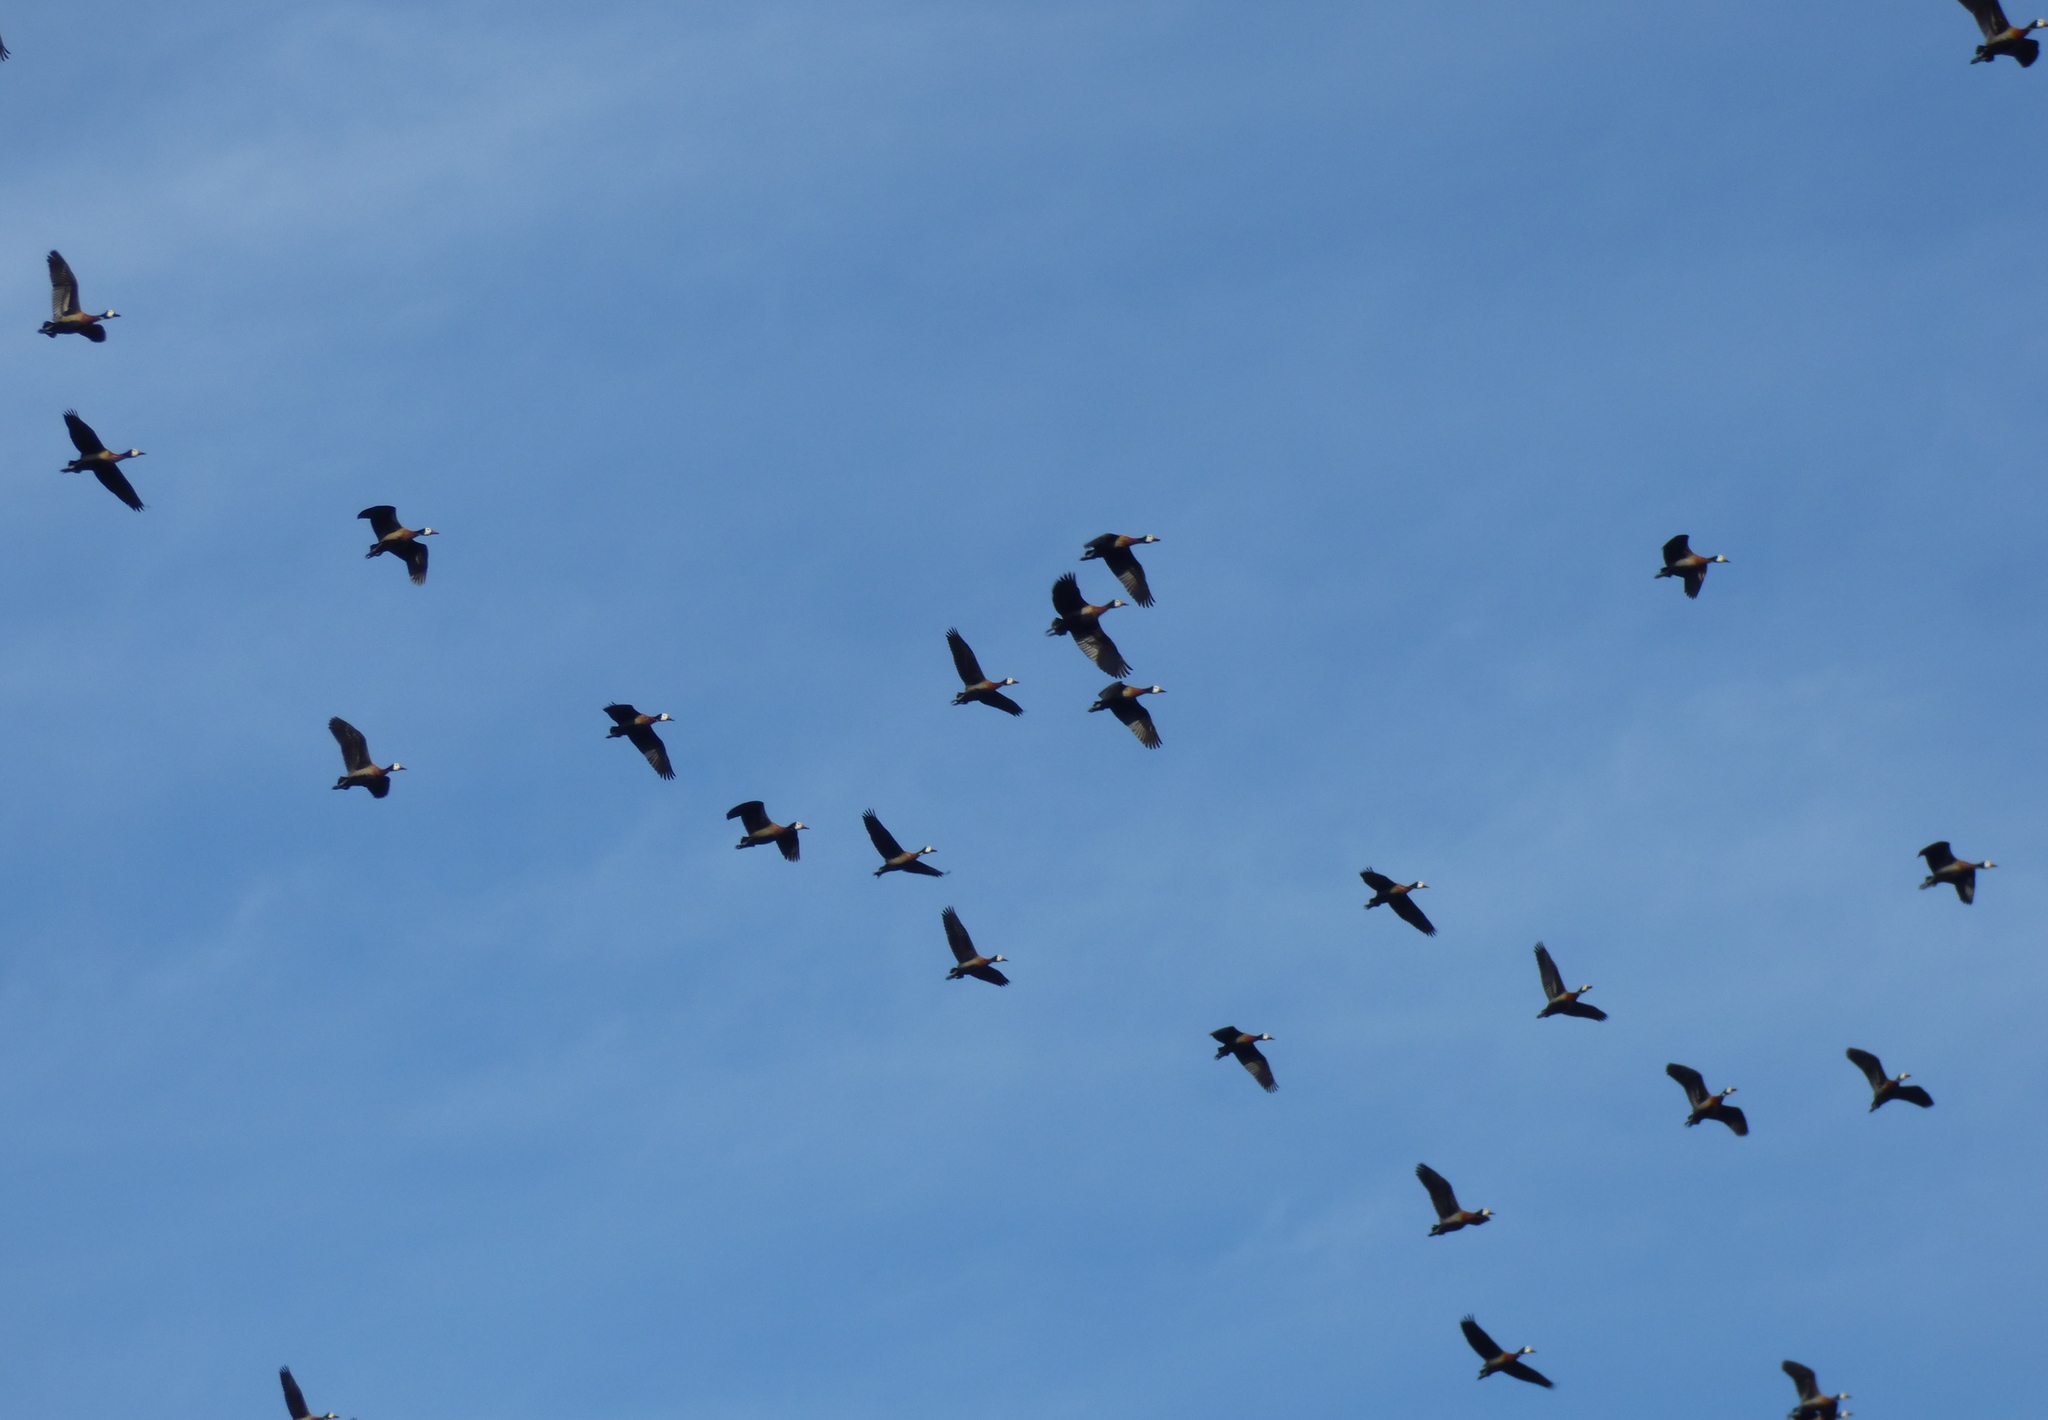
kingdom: Animalia
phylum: Chordata
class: Aves
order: Anseriformes
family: Anatidae
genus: Dendrocygna
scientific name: Dendrocygna viduata
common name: White-faced whistling duck
